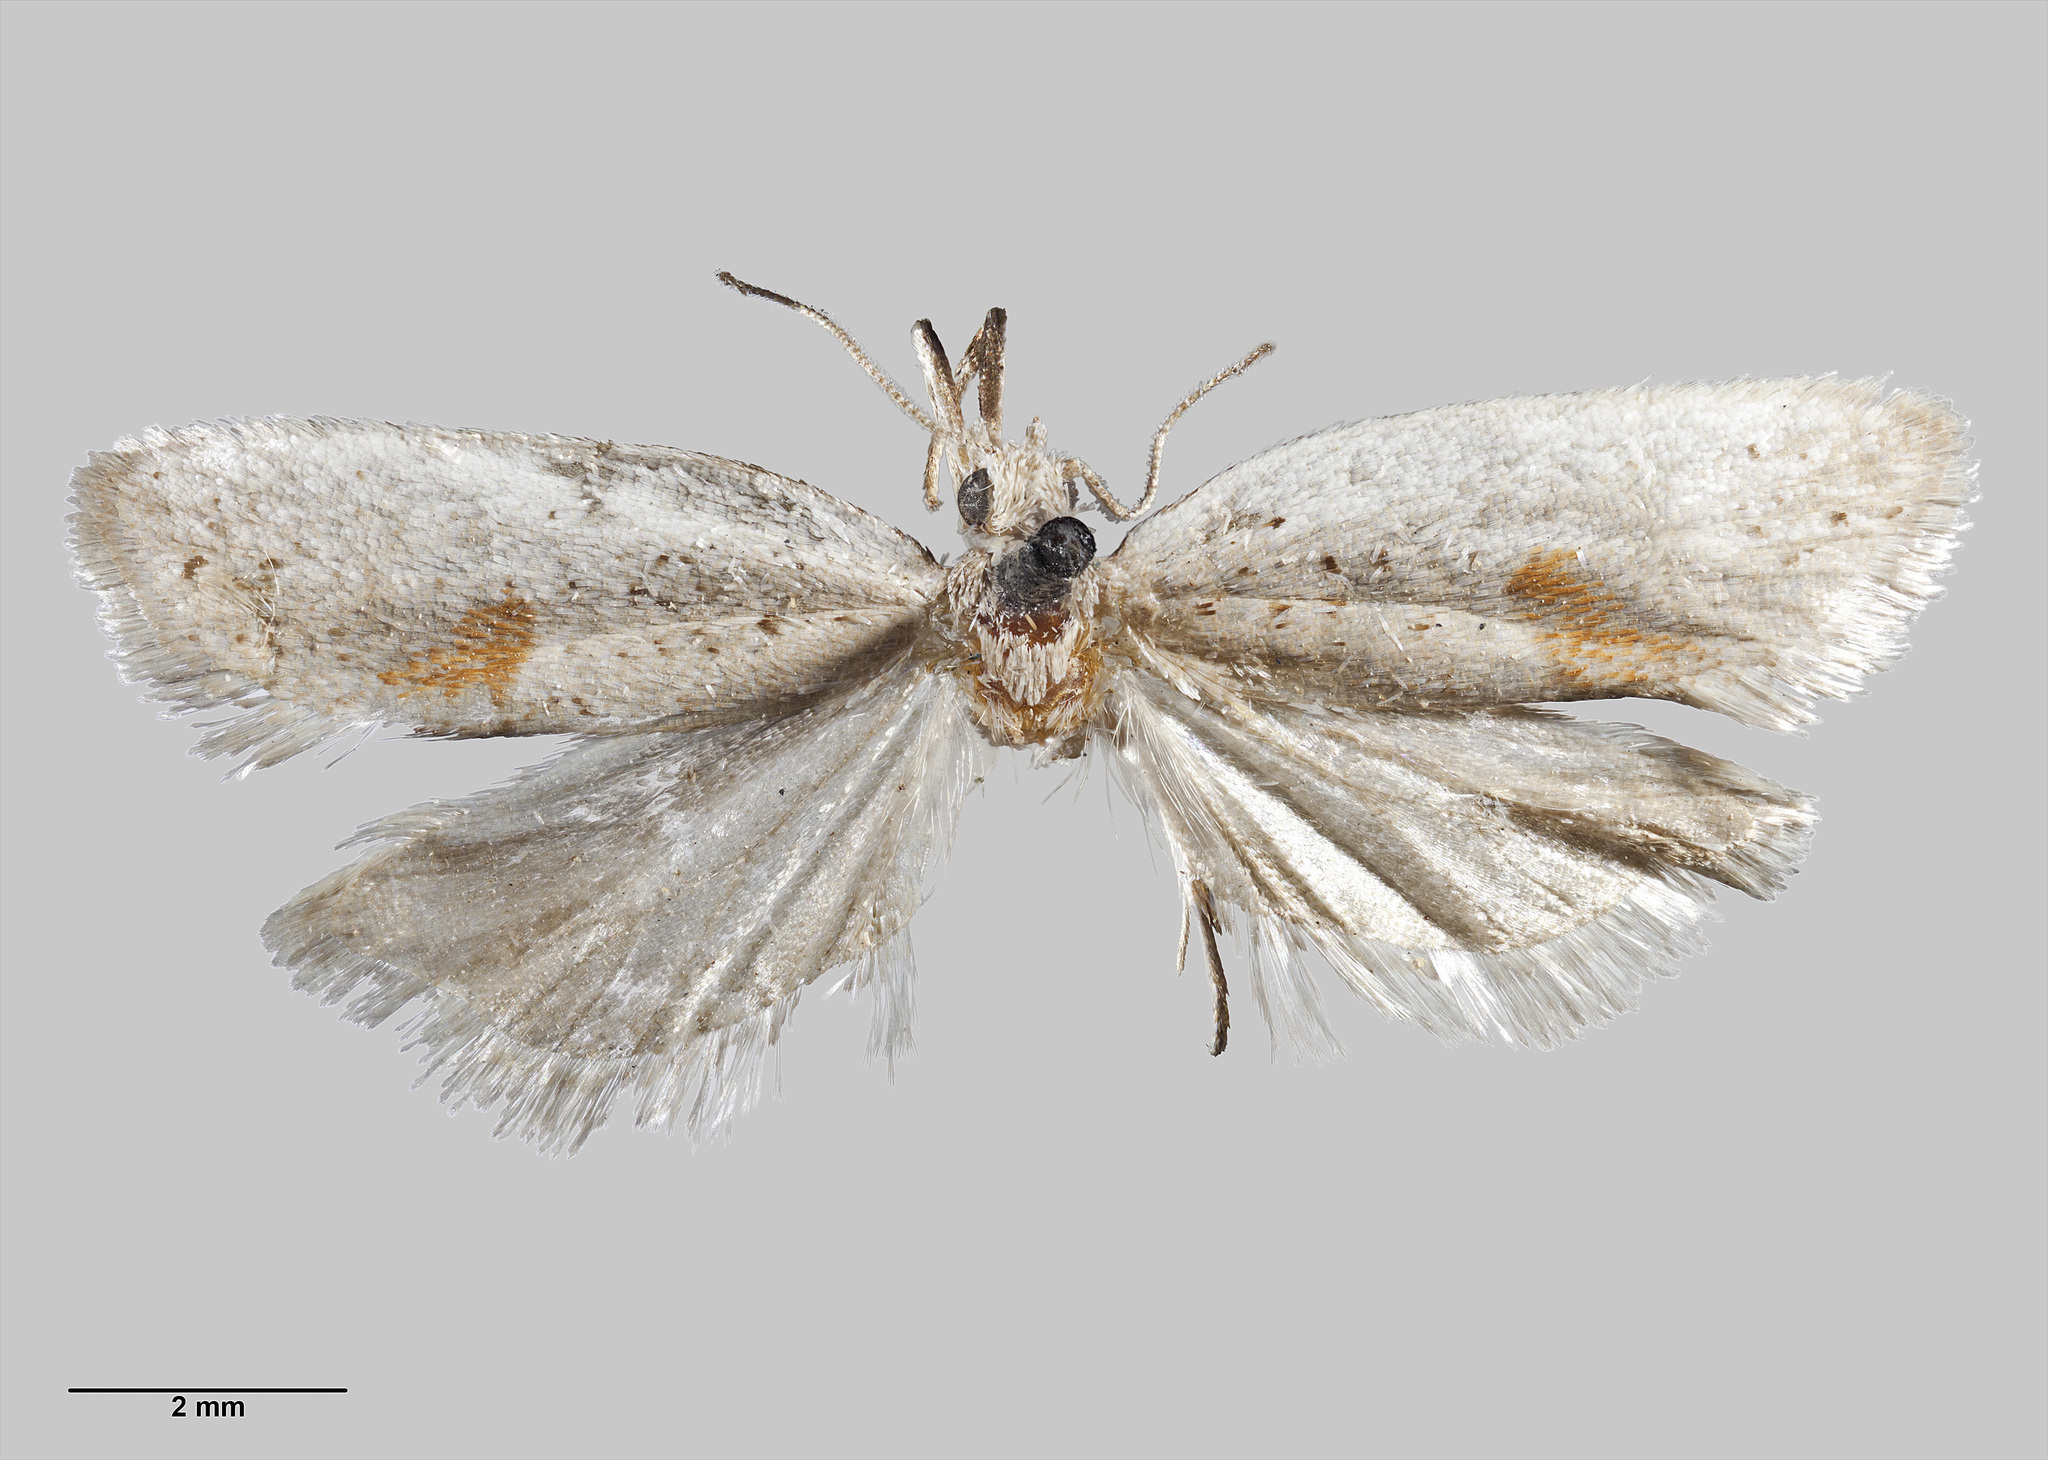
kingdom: Animalia
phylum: Arthropoda
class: Insecta
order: Lepidoptera
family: Tortricidae
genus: Ericodesma
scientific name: Ericodesma cuneata
